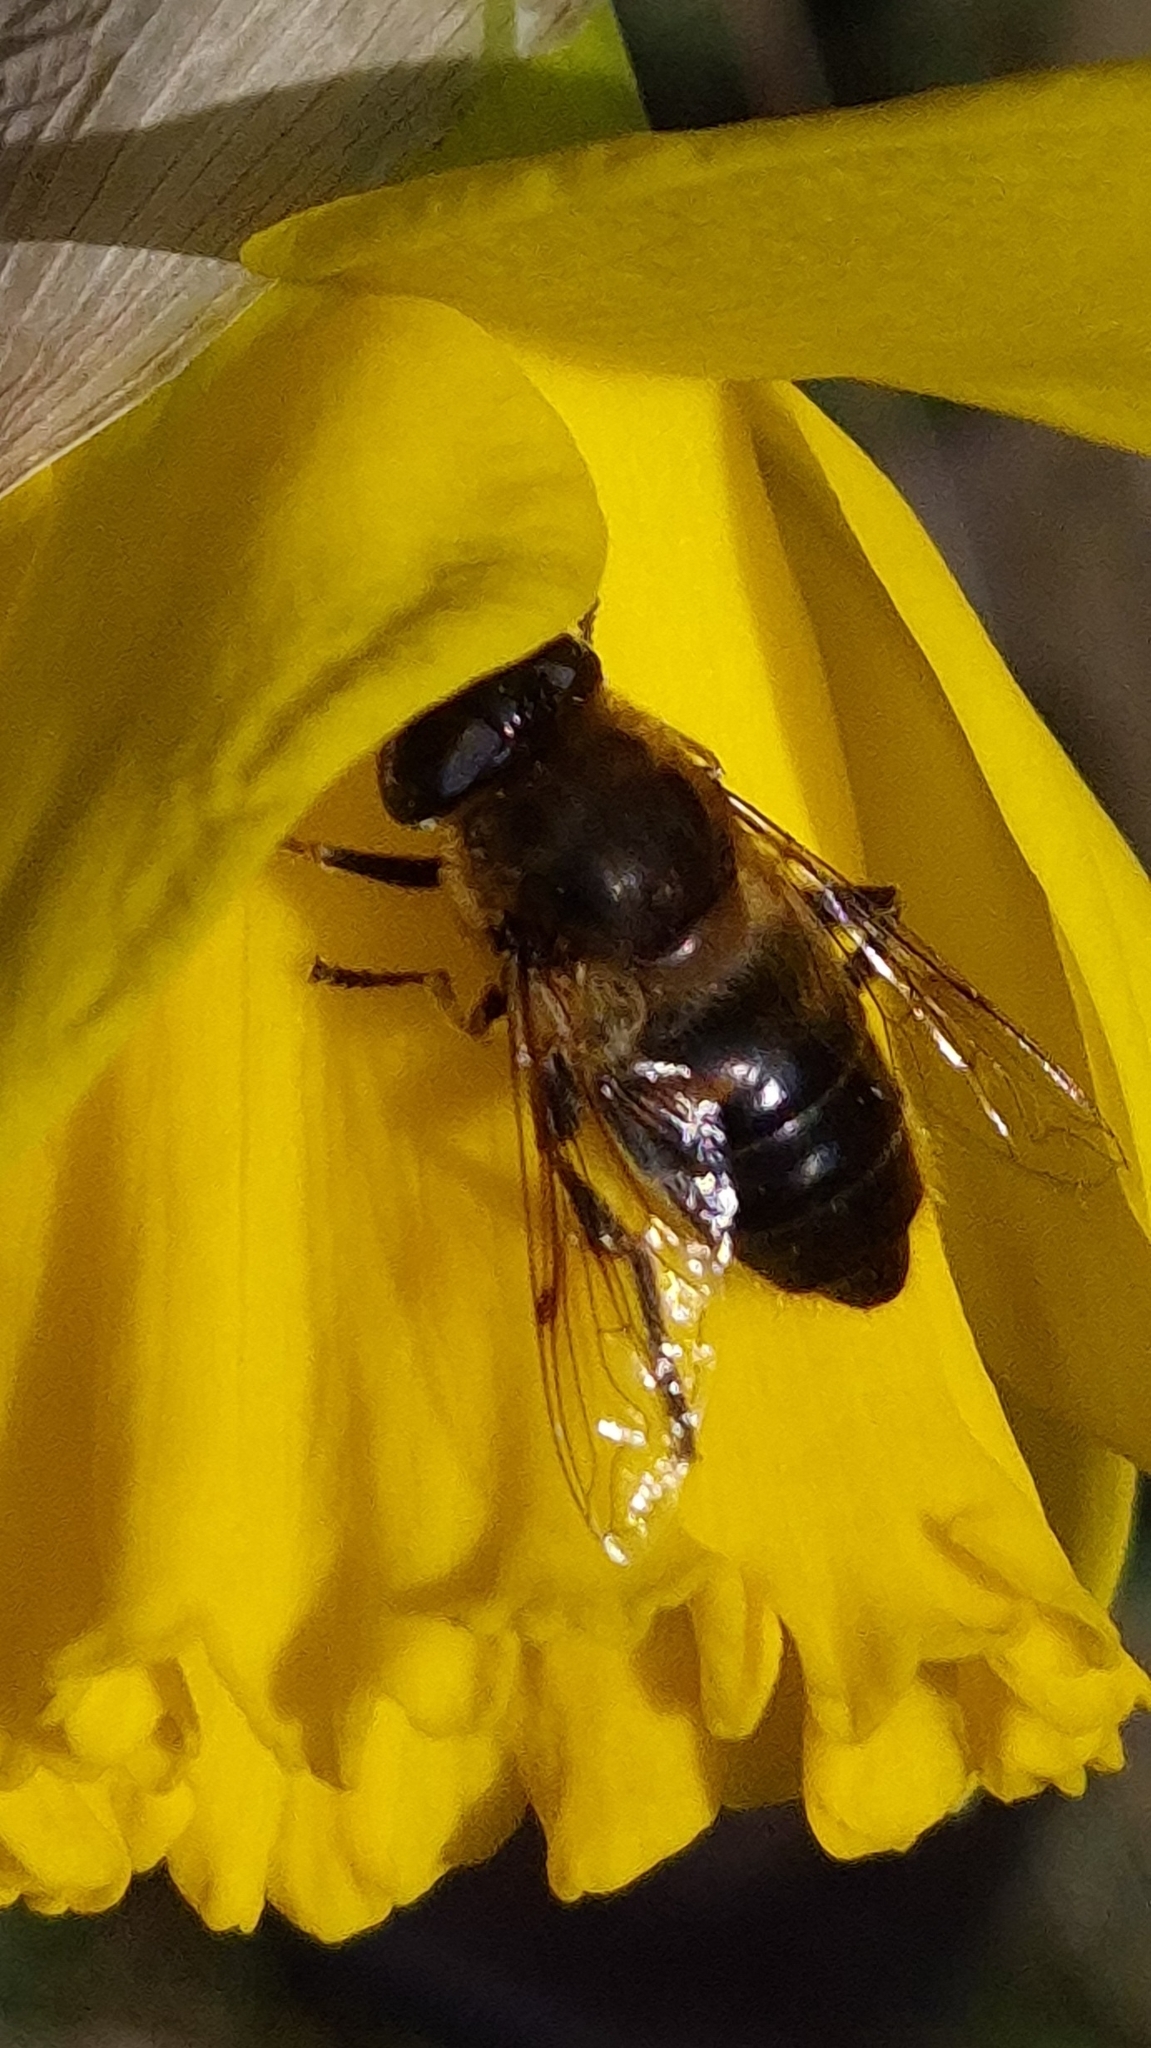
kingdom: Animalia
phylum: Arthropoda
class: Insecta
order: Diptera
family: Syrphidae
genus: Eristalis
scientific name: Eristalis tenax
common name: Drone fly
